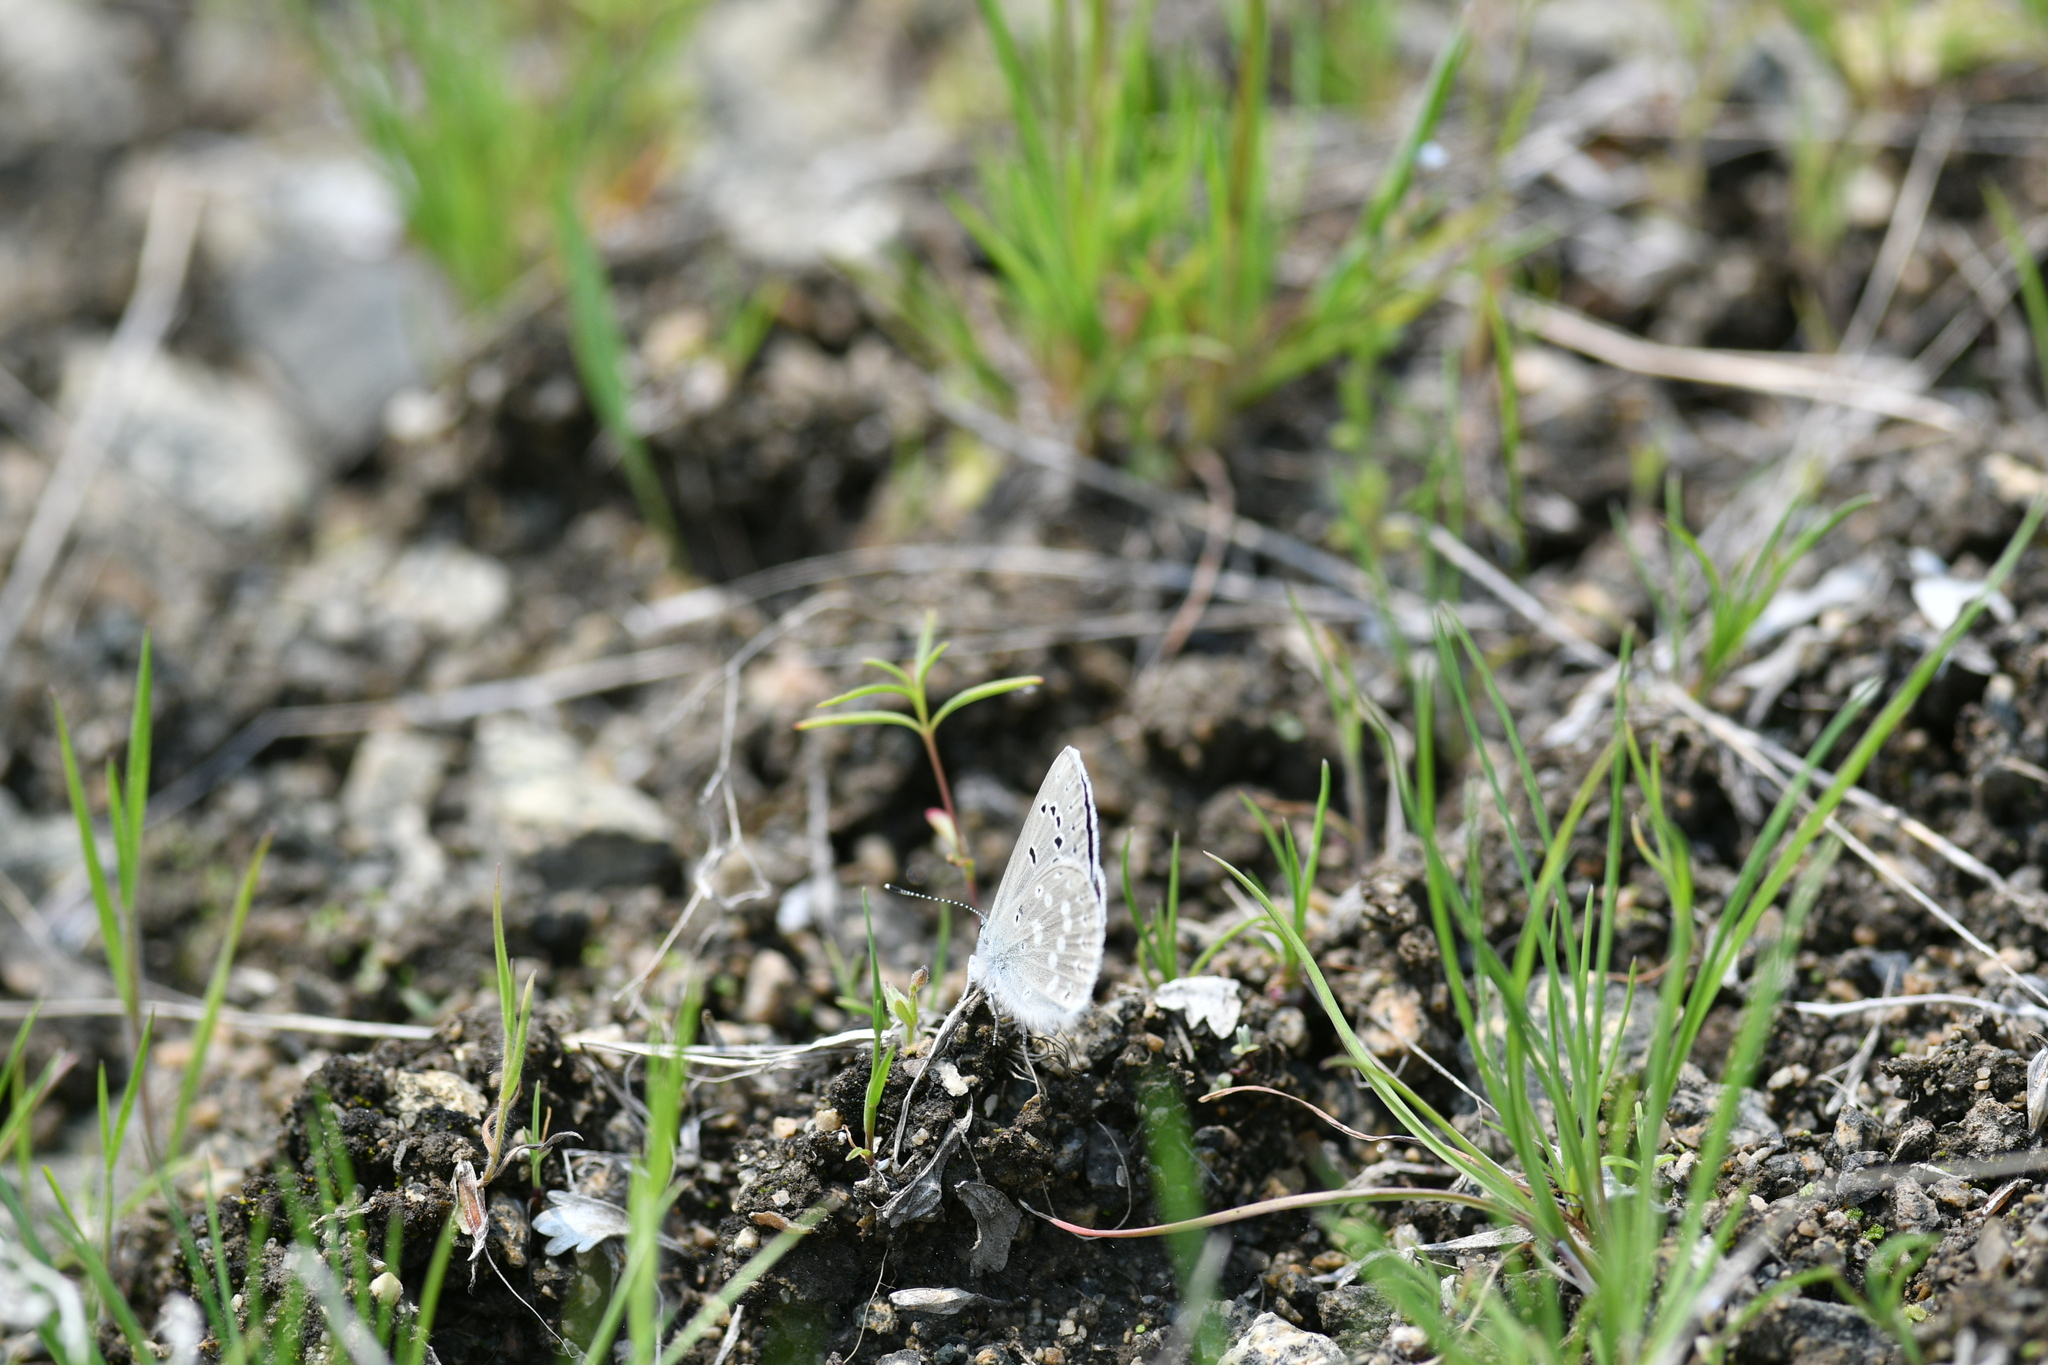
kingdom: Animalia
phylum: Arthropoda
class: Insecta
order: Lepidoptera
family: Lycaenidae
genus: Icaricia
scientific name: Icaricia icarioides
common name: Boisduval's blue
